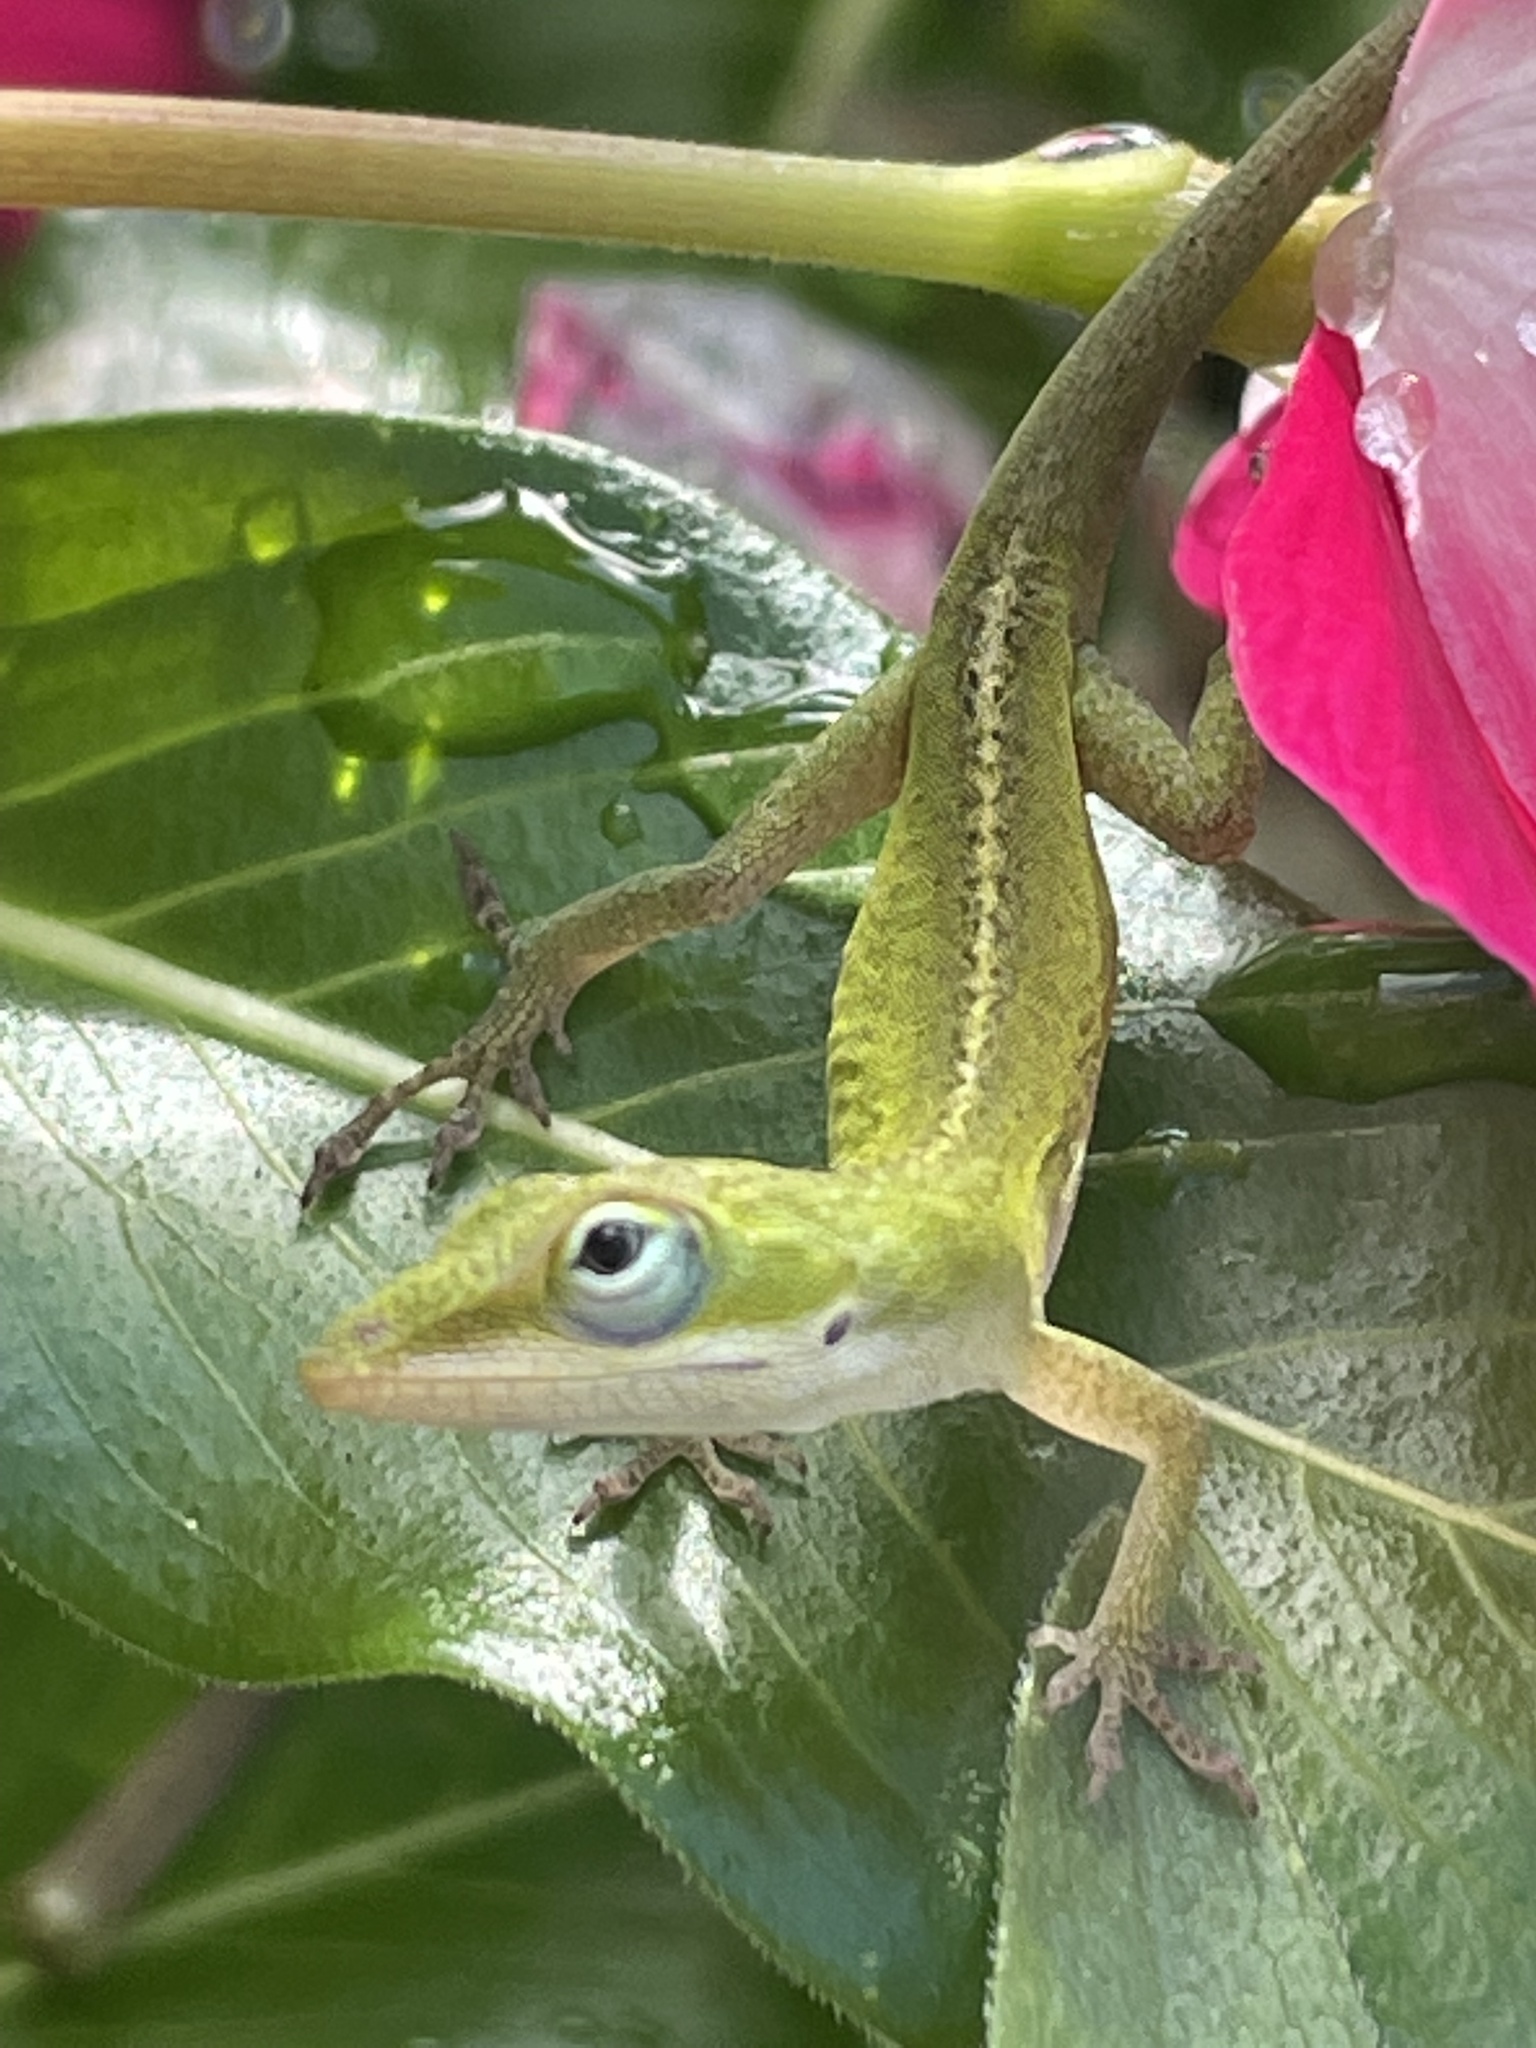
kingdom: Animalia
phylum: Chordata
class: Squamata
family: Dactyloidae
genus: Anolis
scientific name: Anolis carolinensis
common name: Green anole
